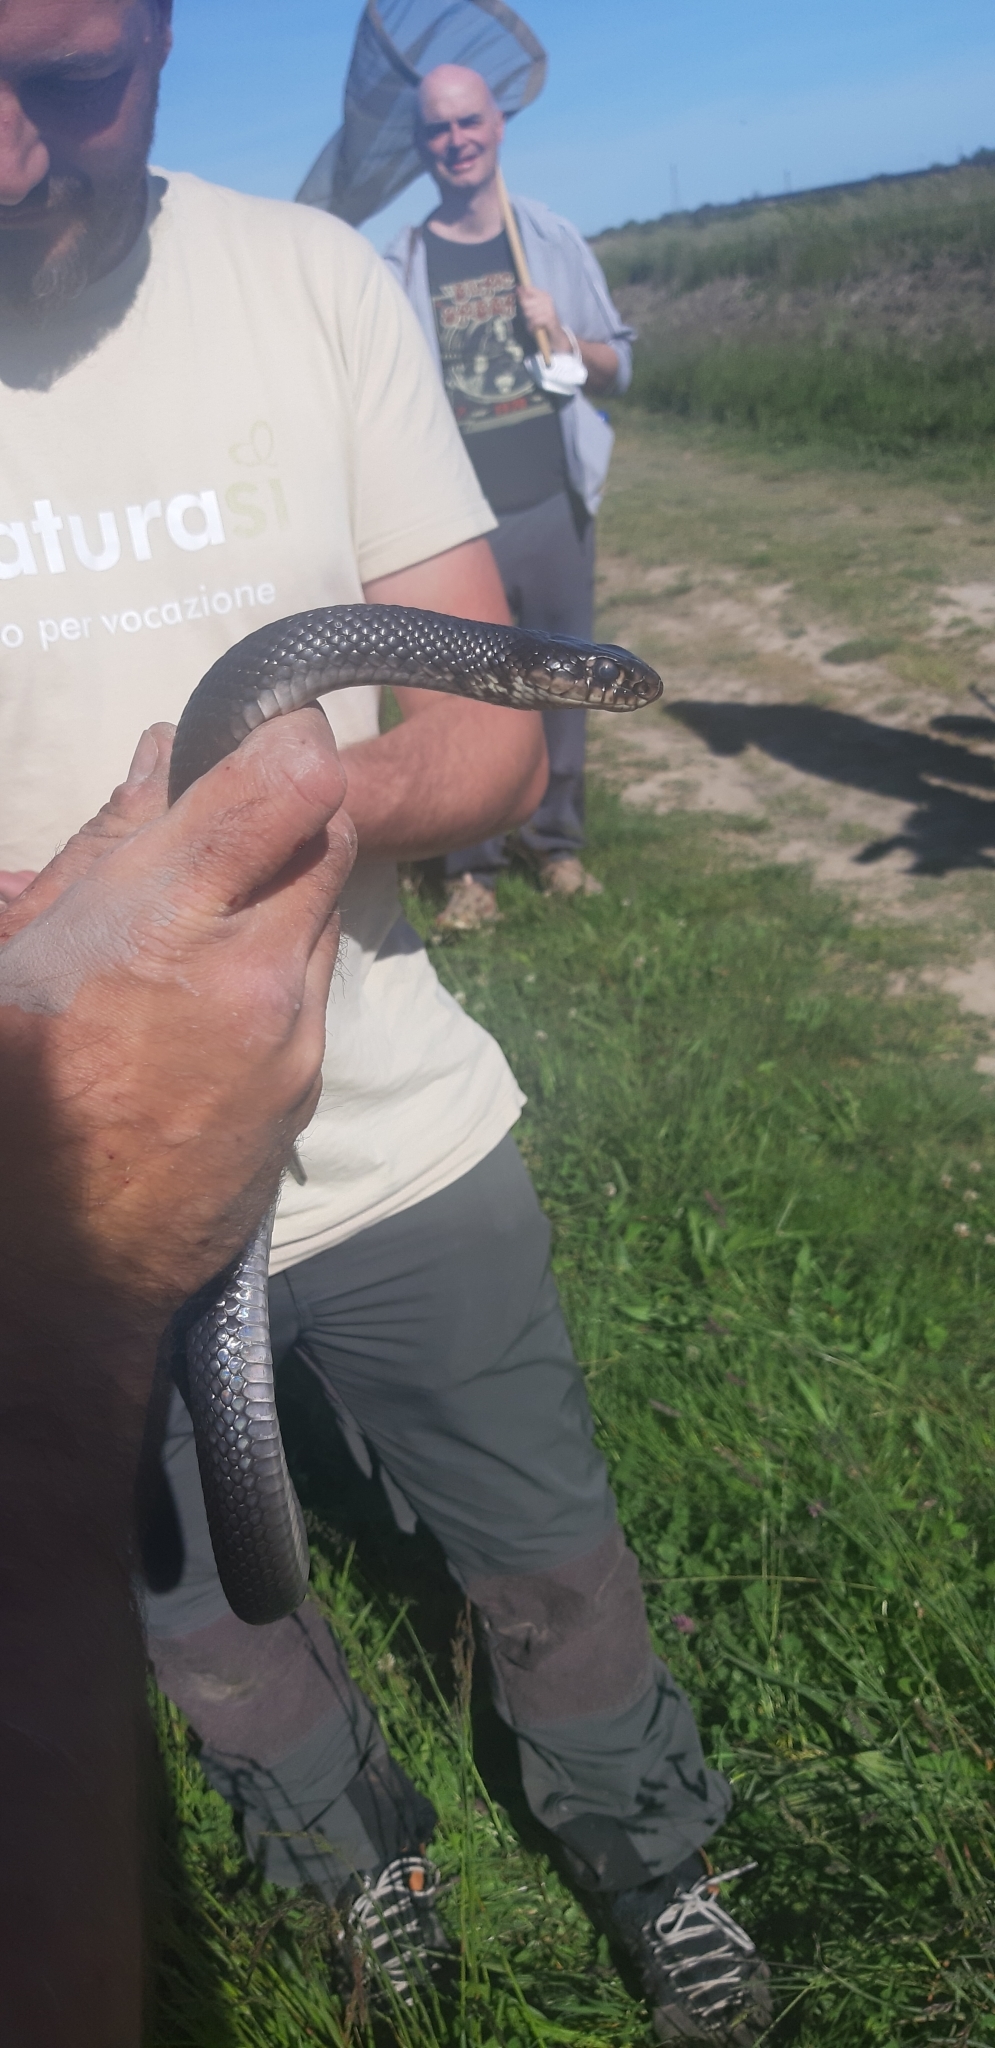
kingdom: Animalia
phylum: Chordata
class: Squamata
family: Colubridae
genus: Hierophis
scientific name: Hierophis viridiflavus
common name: Green whip snake
